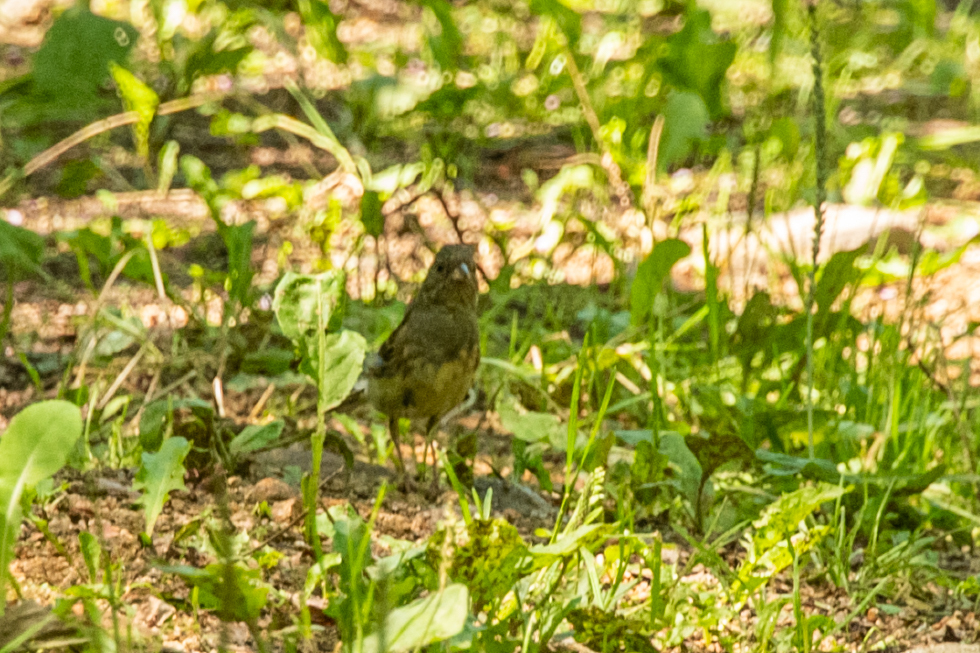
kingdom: Animalia
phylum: Chordata
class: Aves
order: Passeriformes
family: Emberizidae
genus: Emberiza
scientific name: Emberiza spodocephala
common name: Black-faced bunting
